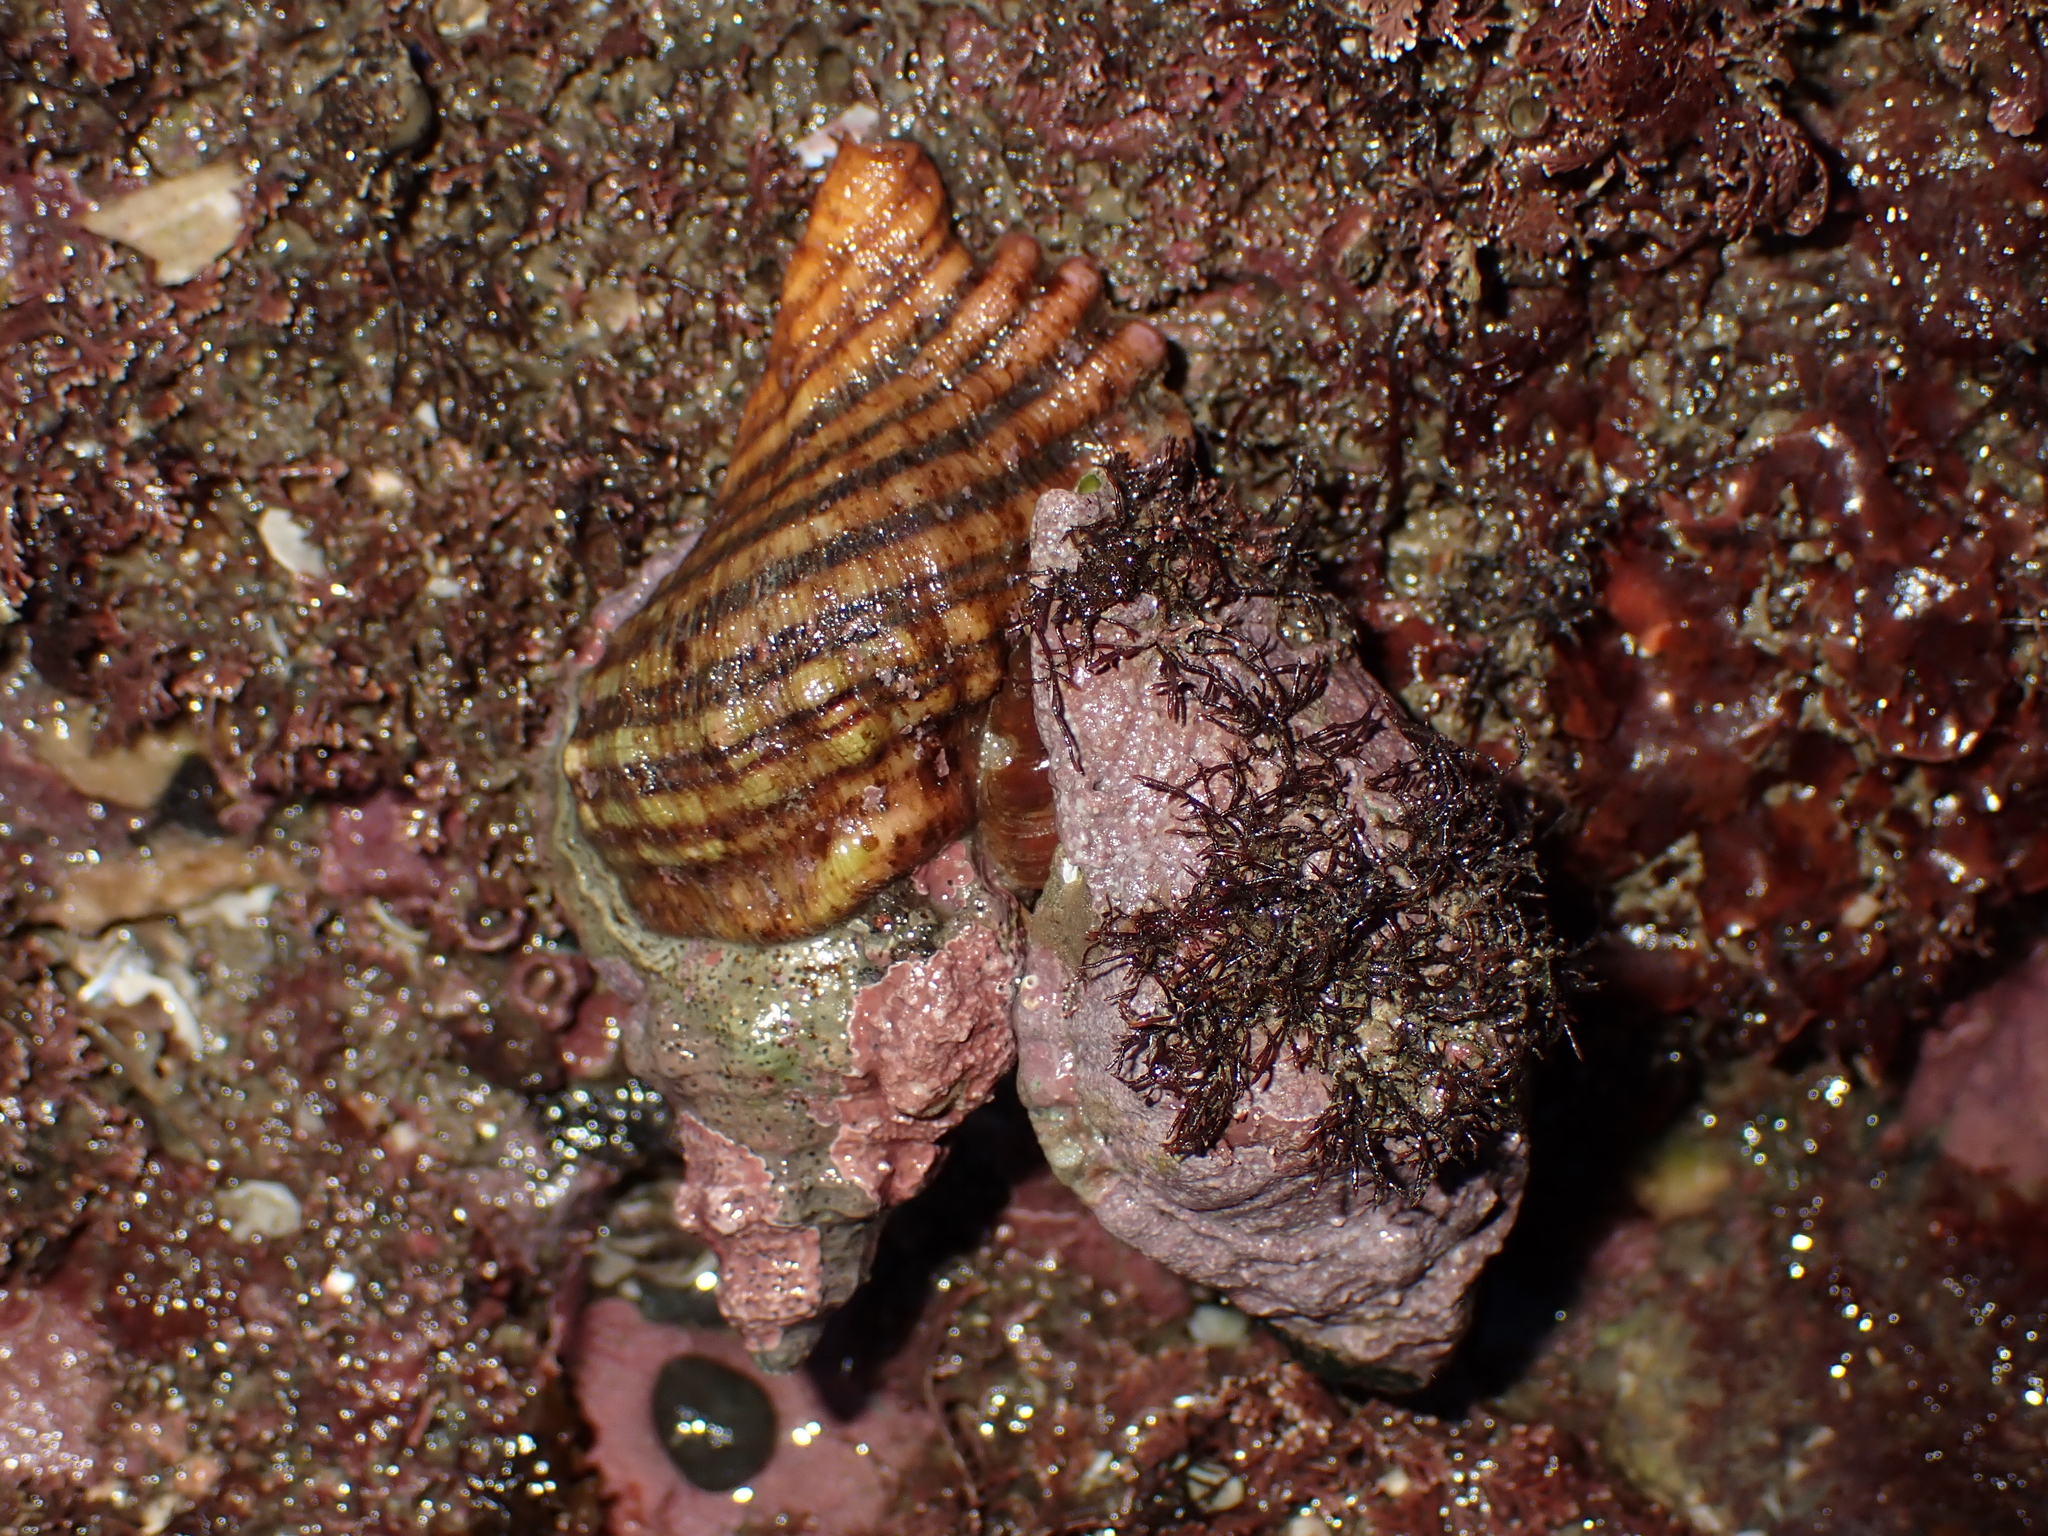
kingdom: Animalia
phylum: Mollusca
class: Gastropoda
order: Littorinimorpha
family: Cymatiidae
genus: Cabestana
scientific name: Cabestana spengleri
